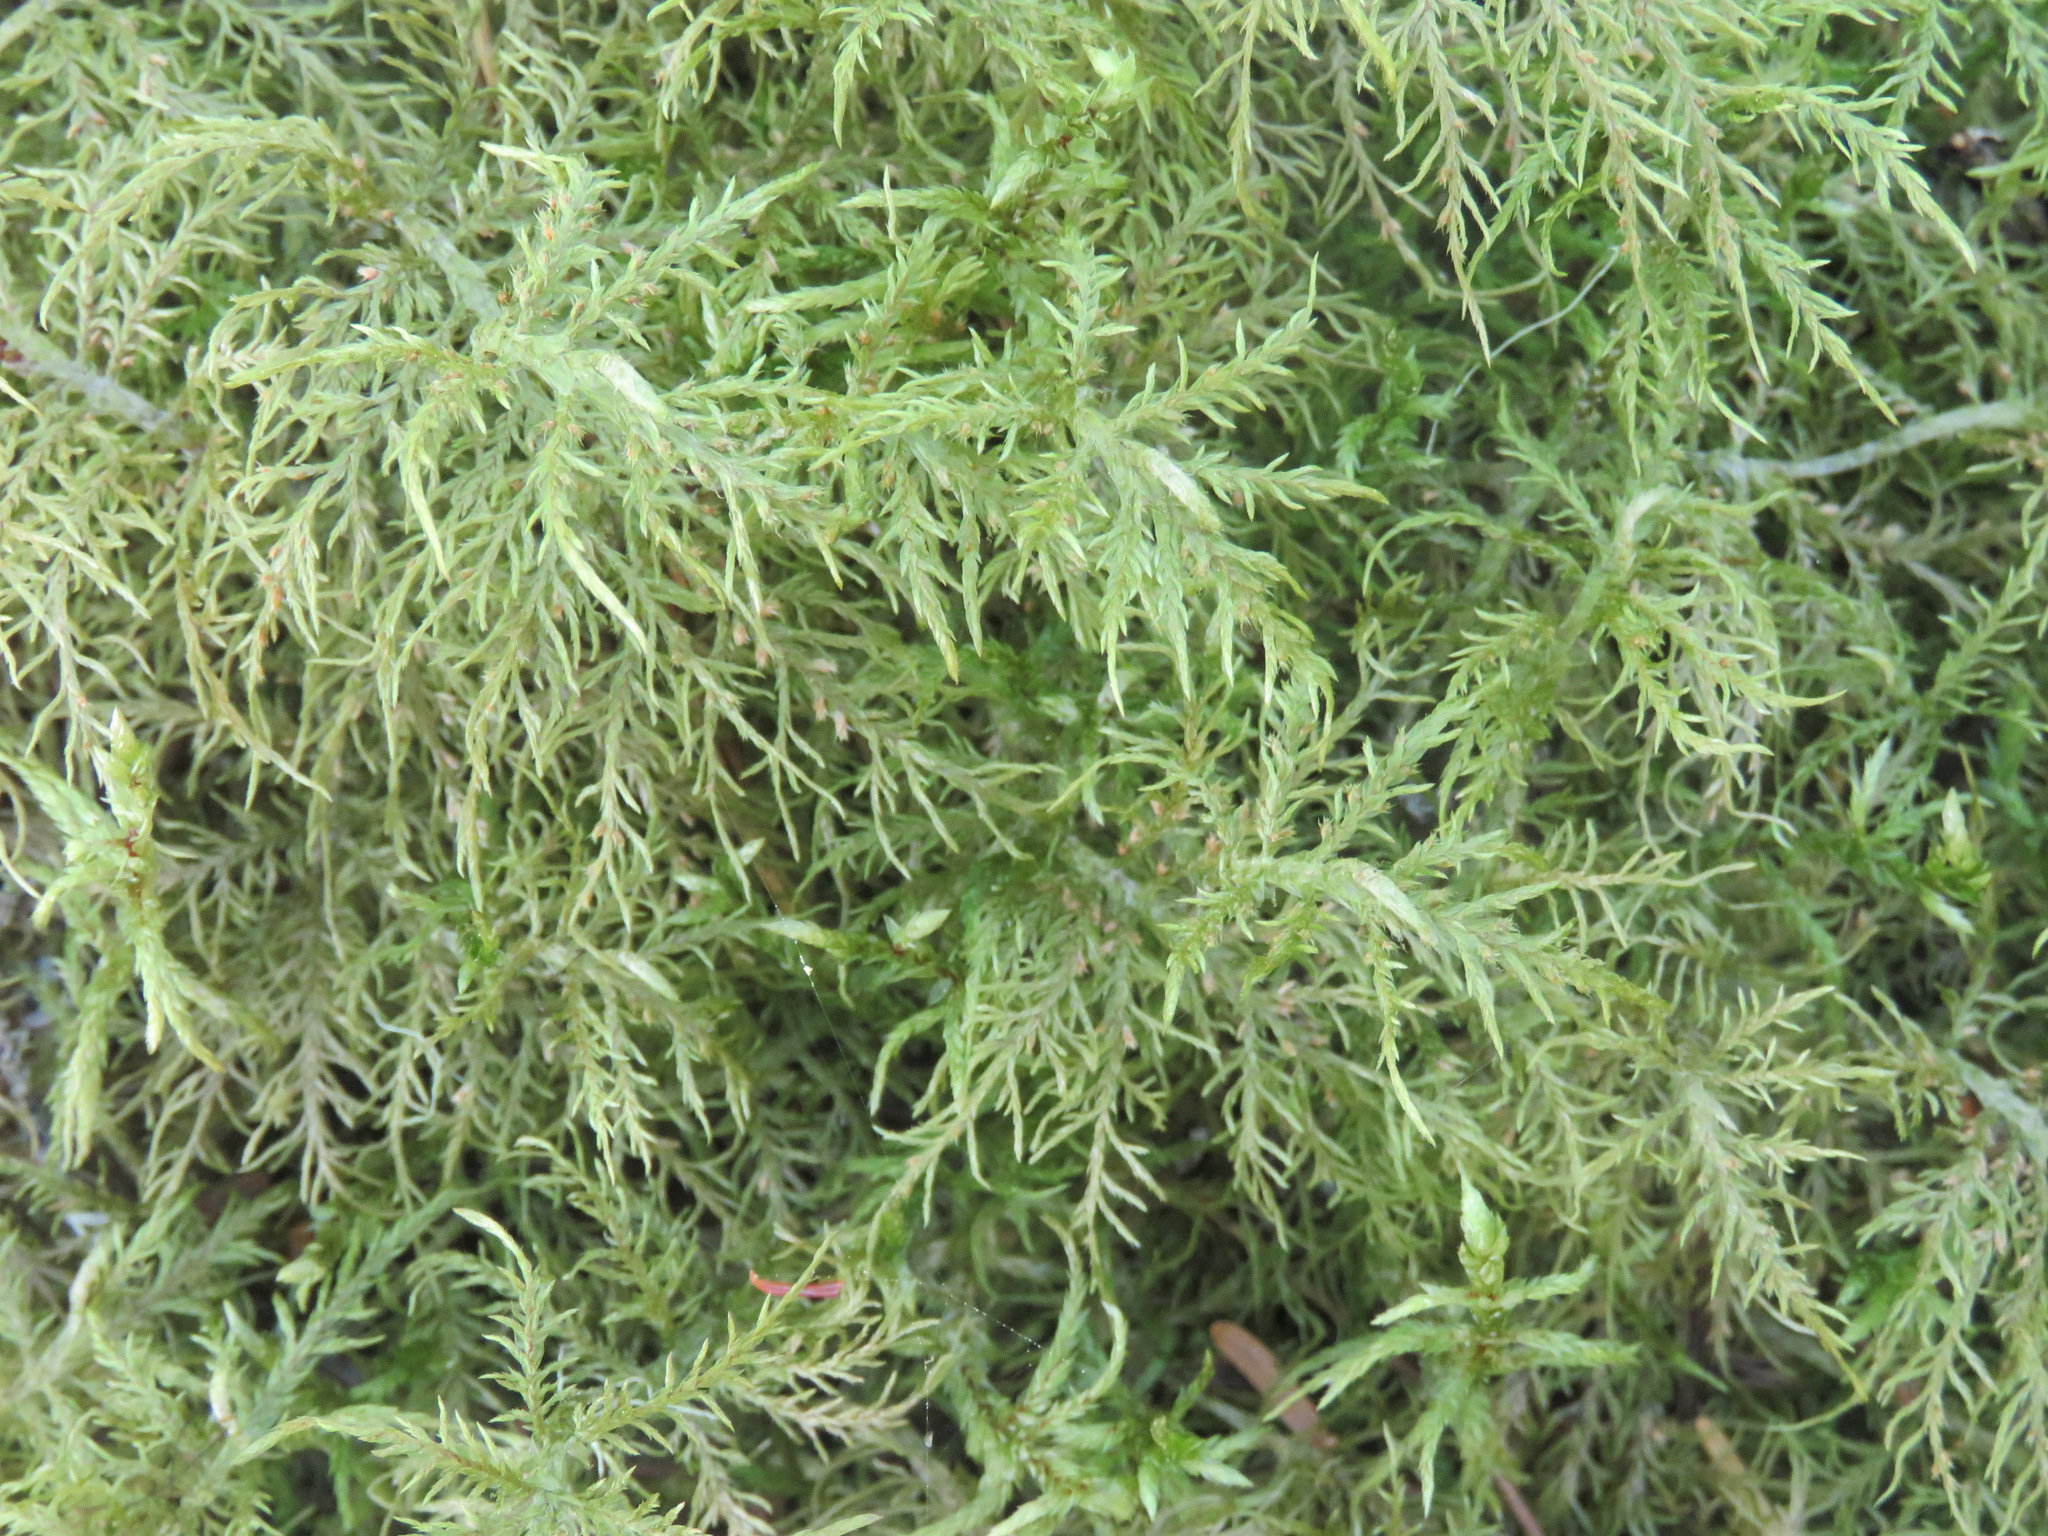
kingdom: Plantae
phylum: Bryophyta
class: Bryopsida
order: Hypnales
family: Hylocomiaceae
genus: Hylocomium
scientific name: Hylocomium splendens
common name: Stairstep moss
